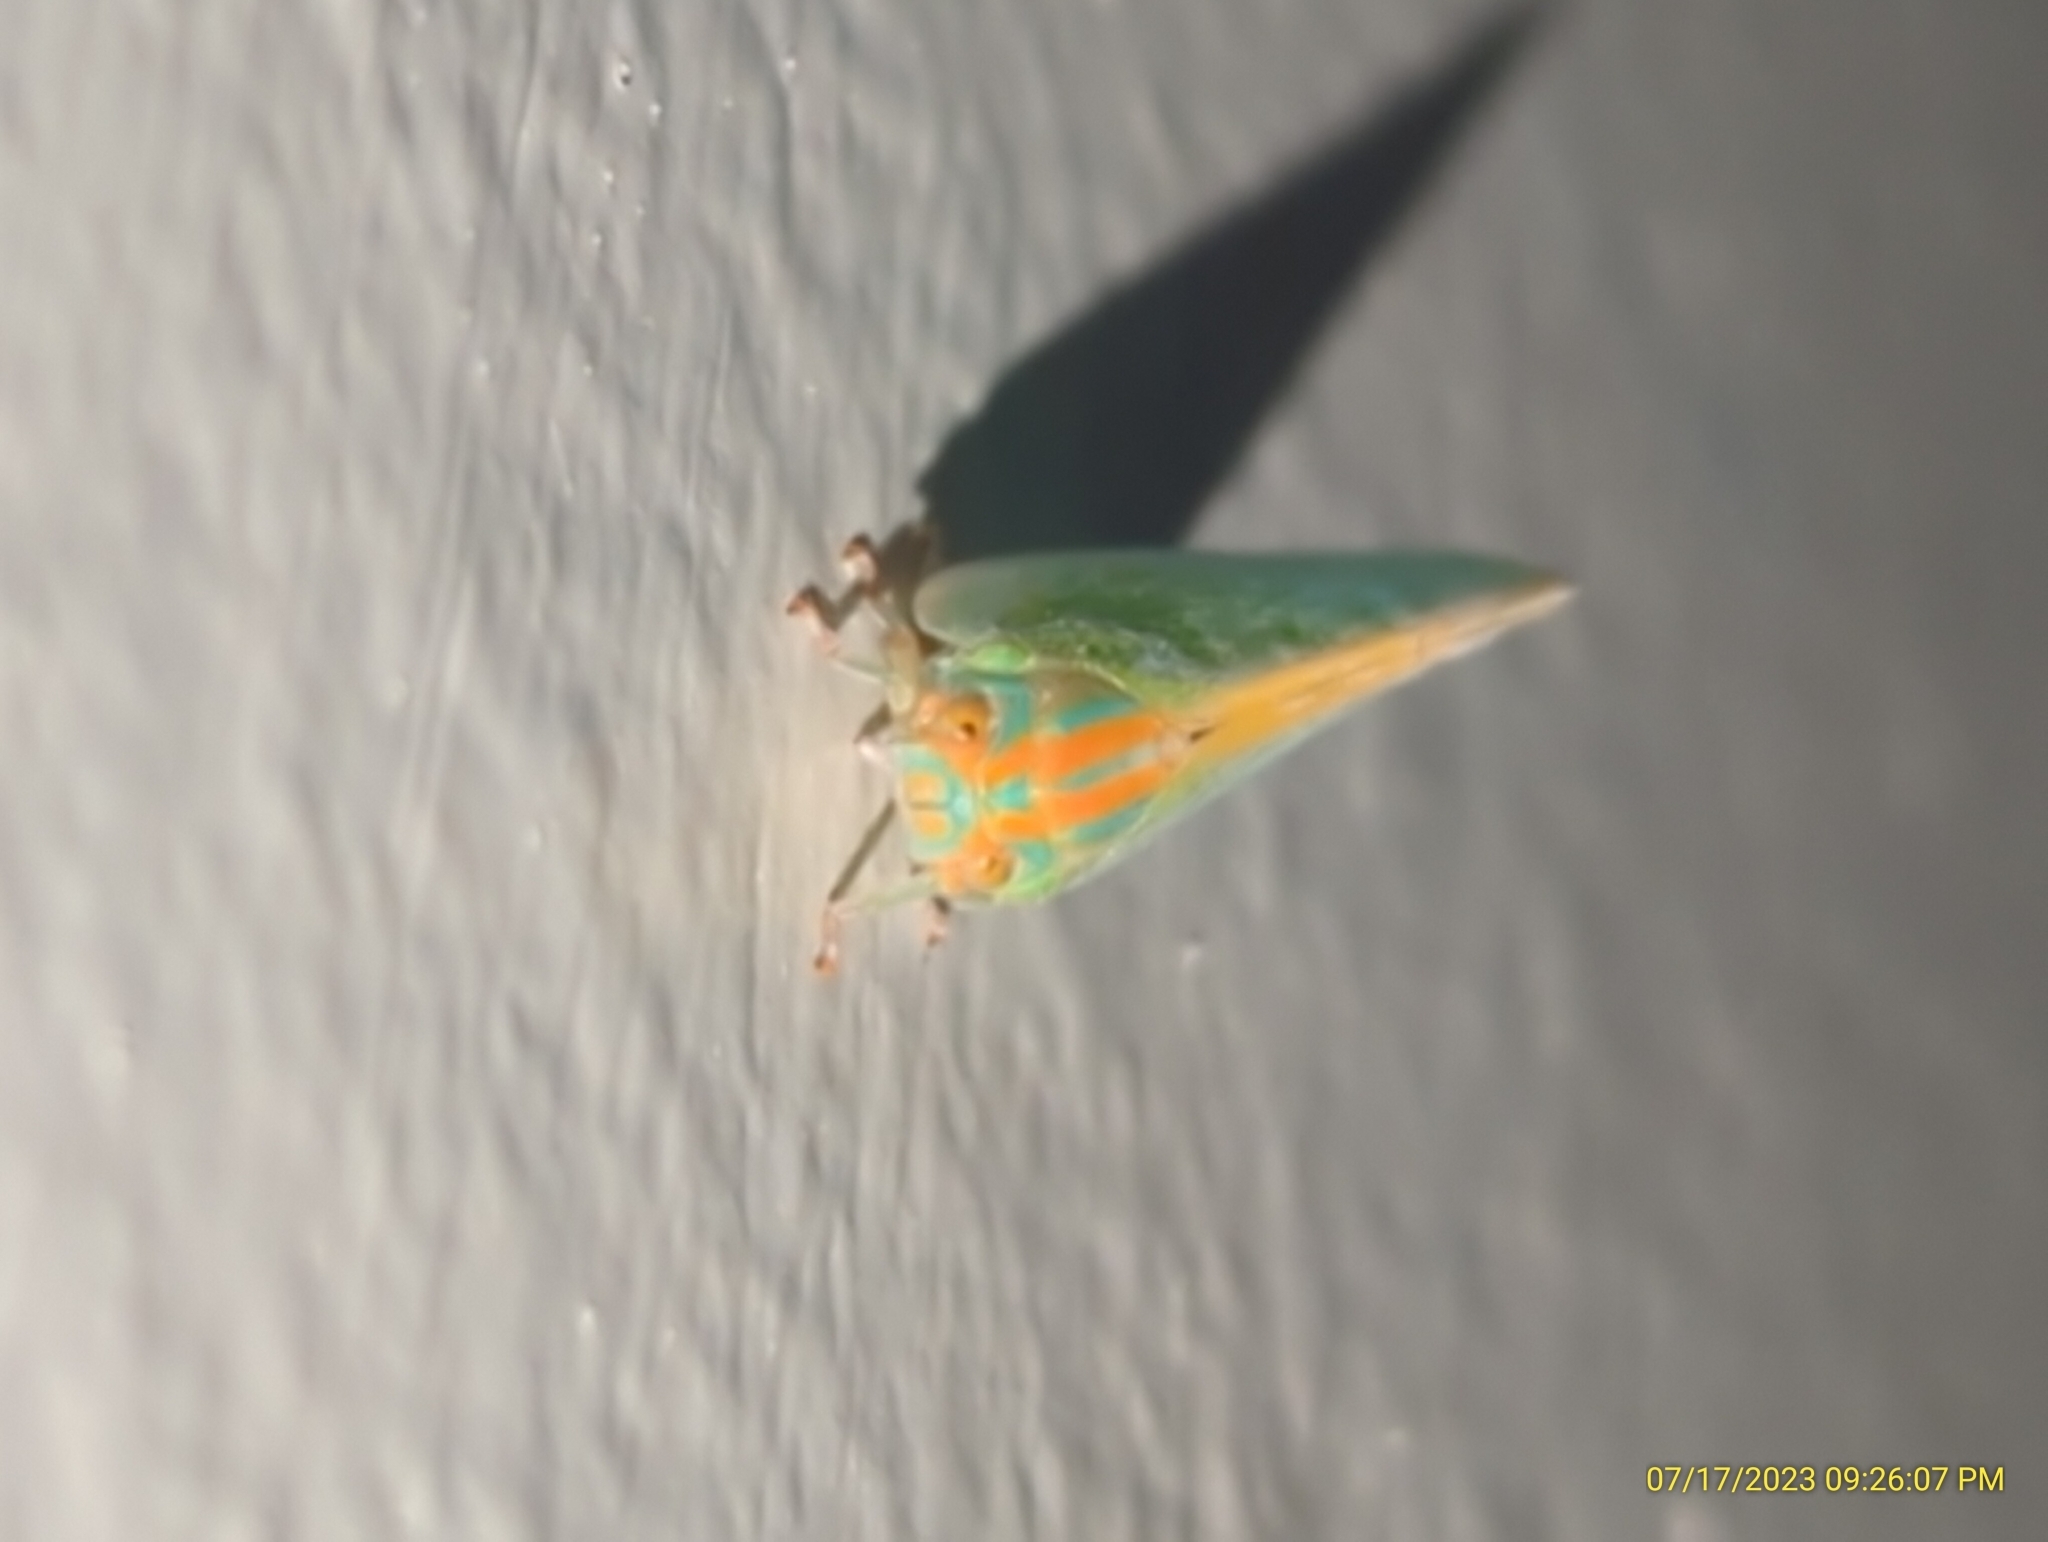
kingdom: Animalia
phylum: Arthropoda
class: Insecta
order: Hemiptera
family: Flatidae
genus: Ormenaria
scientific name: Ormenaria rufifascia
